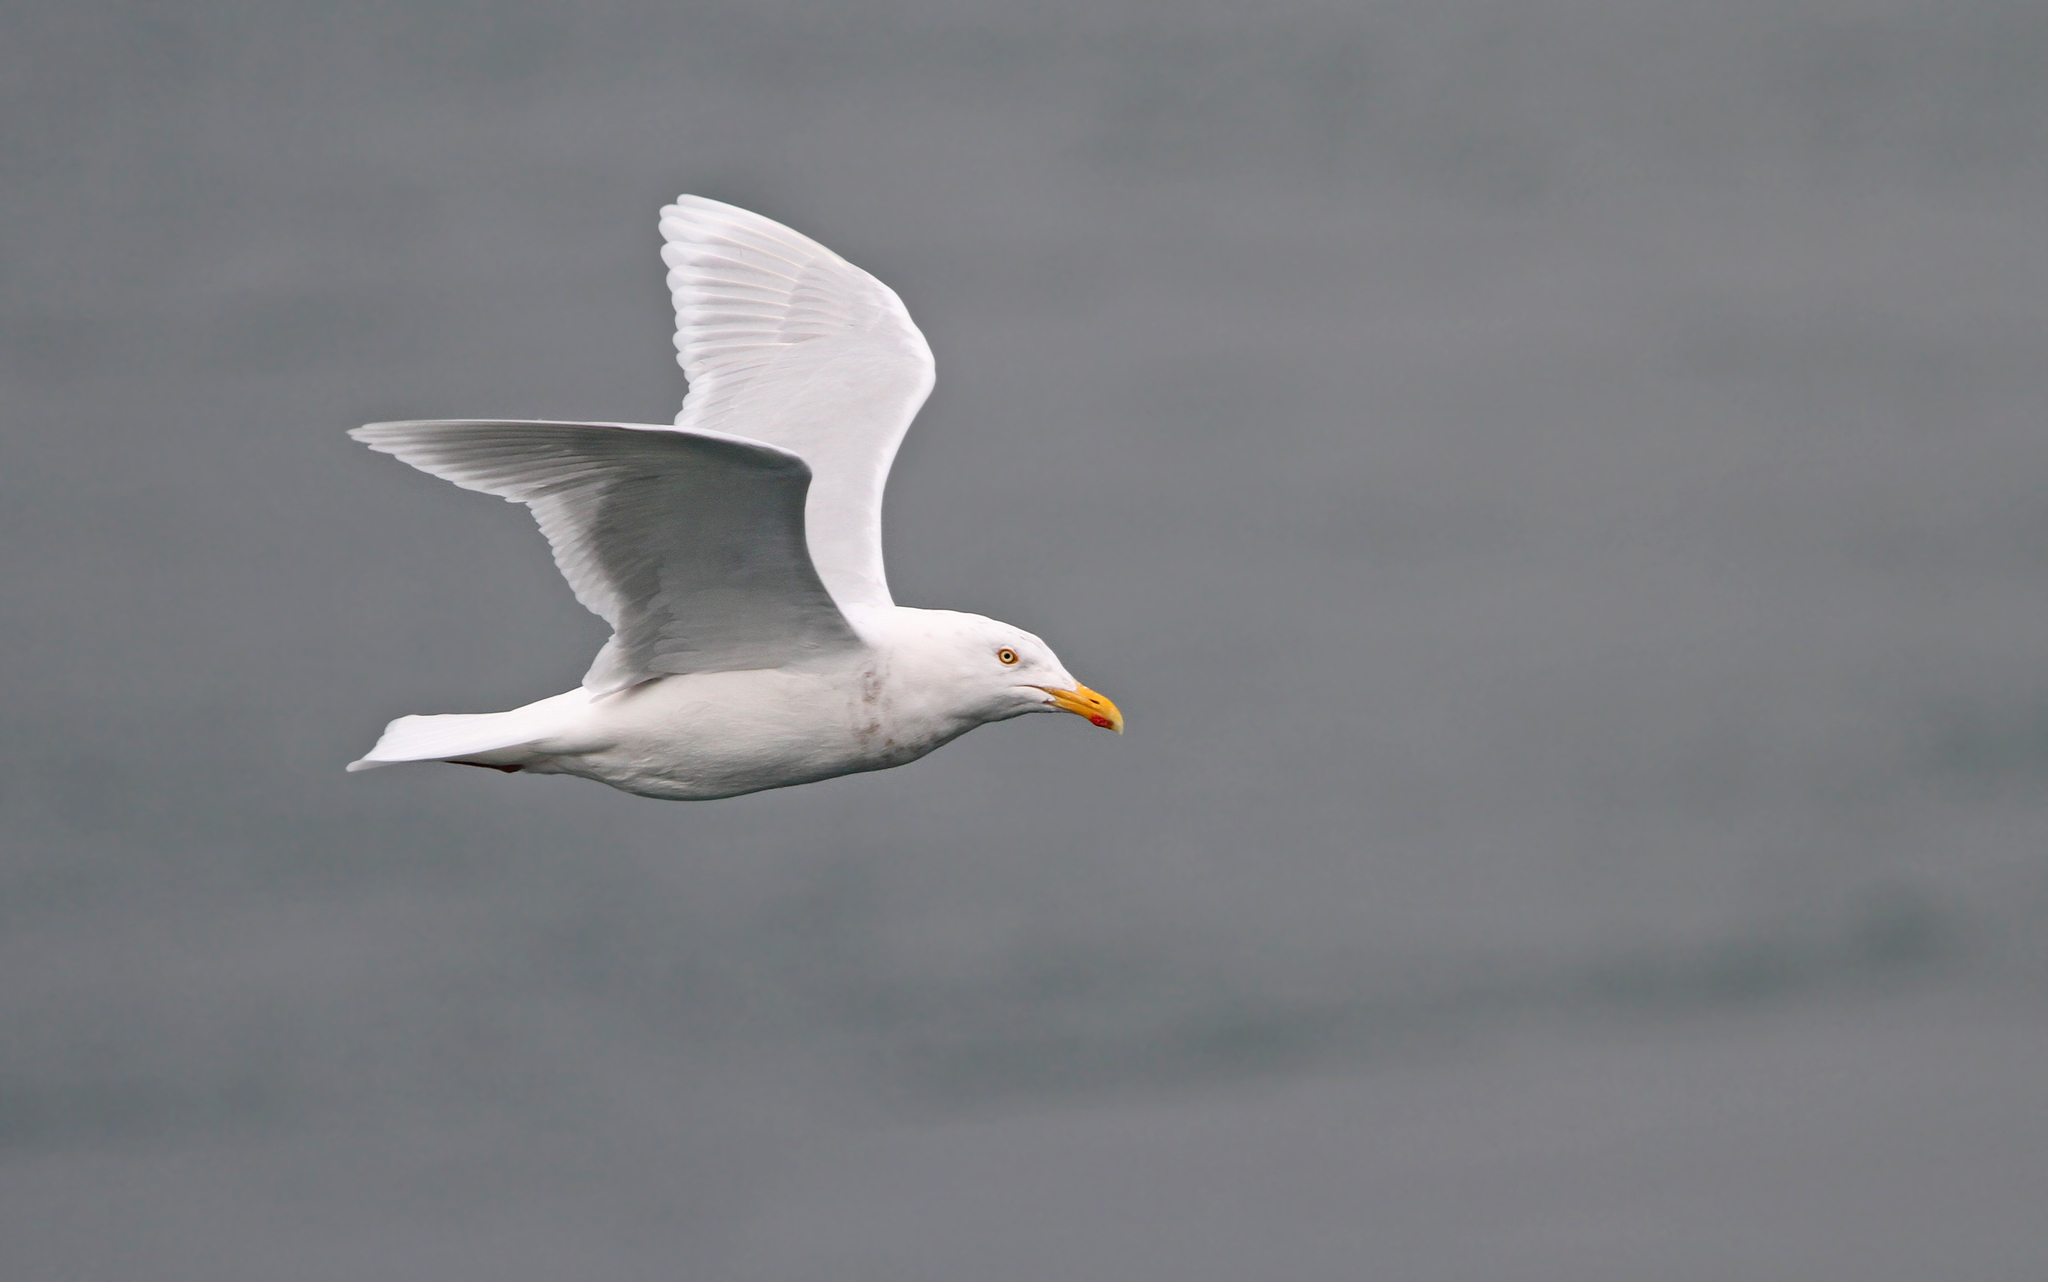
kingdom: Animalia
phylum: Chordata
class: Aves
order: Charadriiformes
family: Laridae
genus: Larus
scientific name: Larus hyperboreus
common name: Glaucous gull
